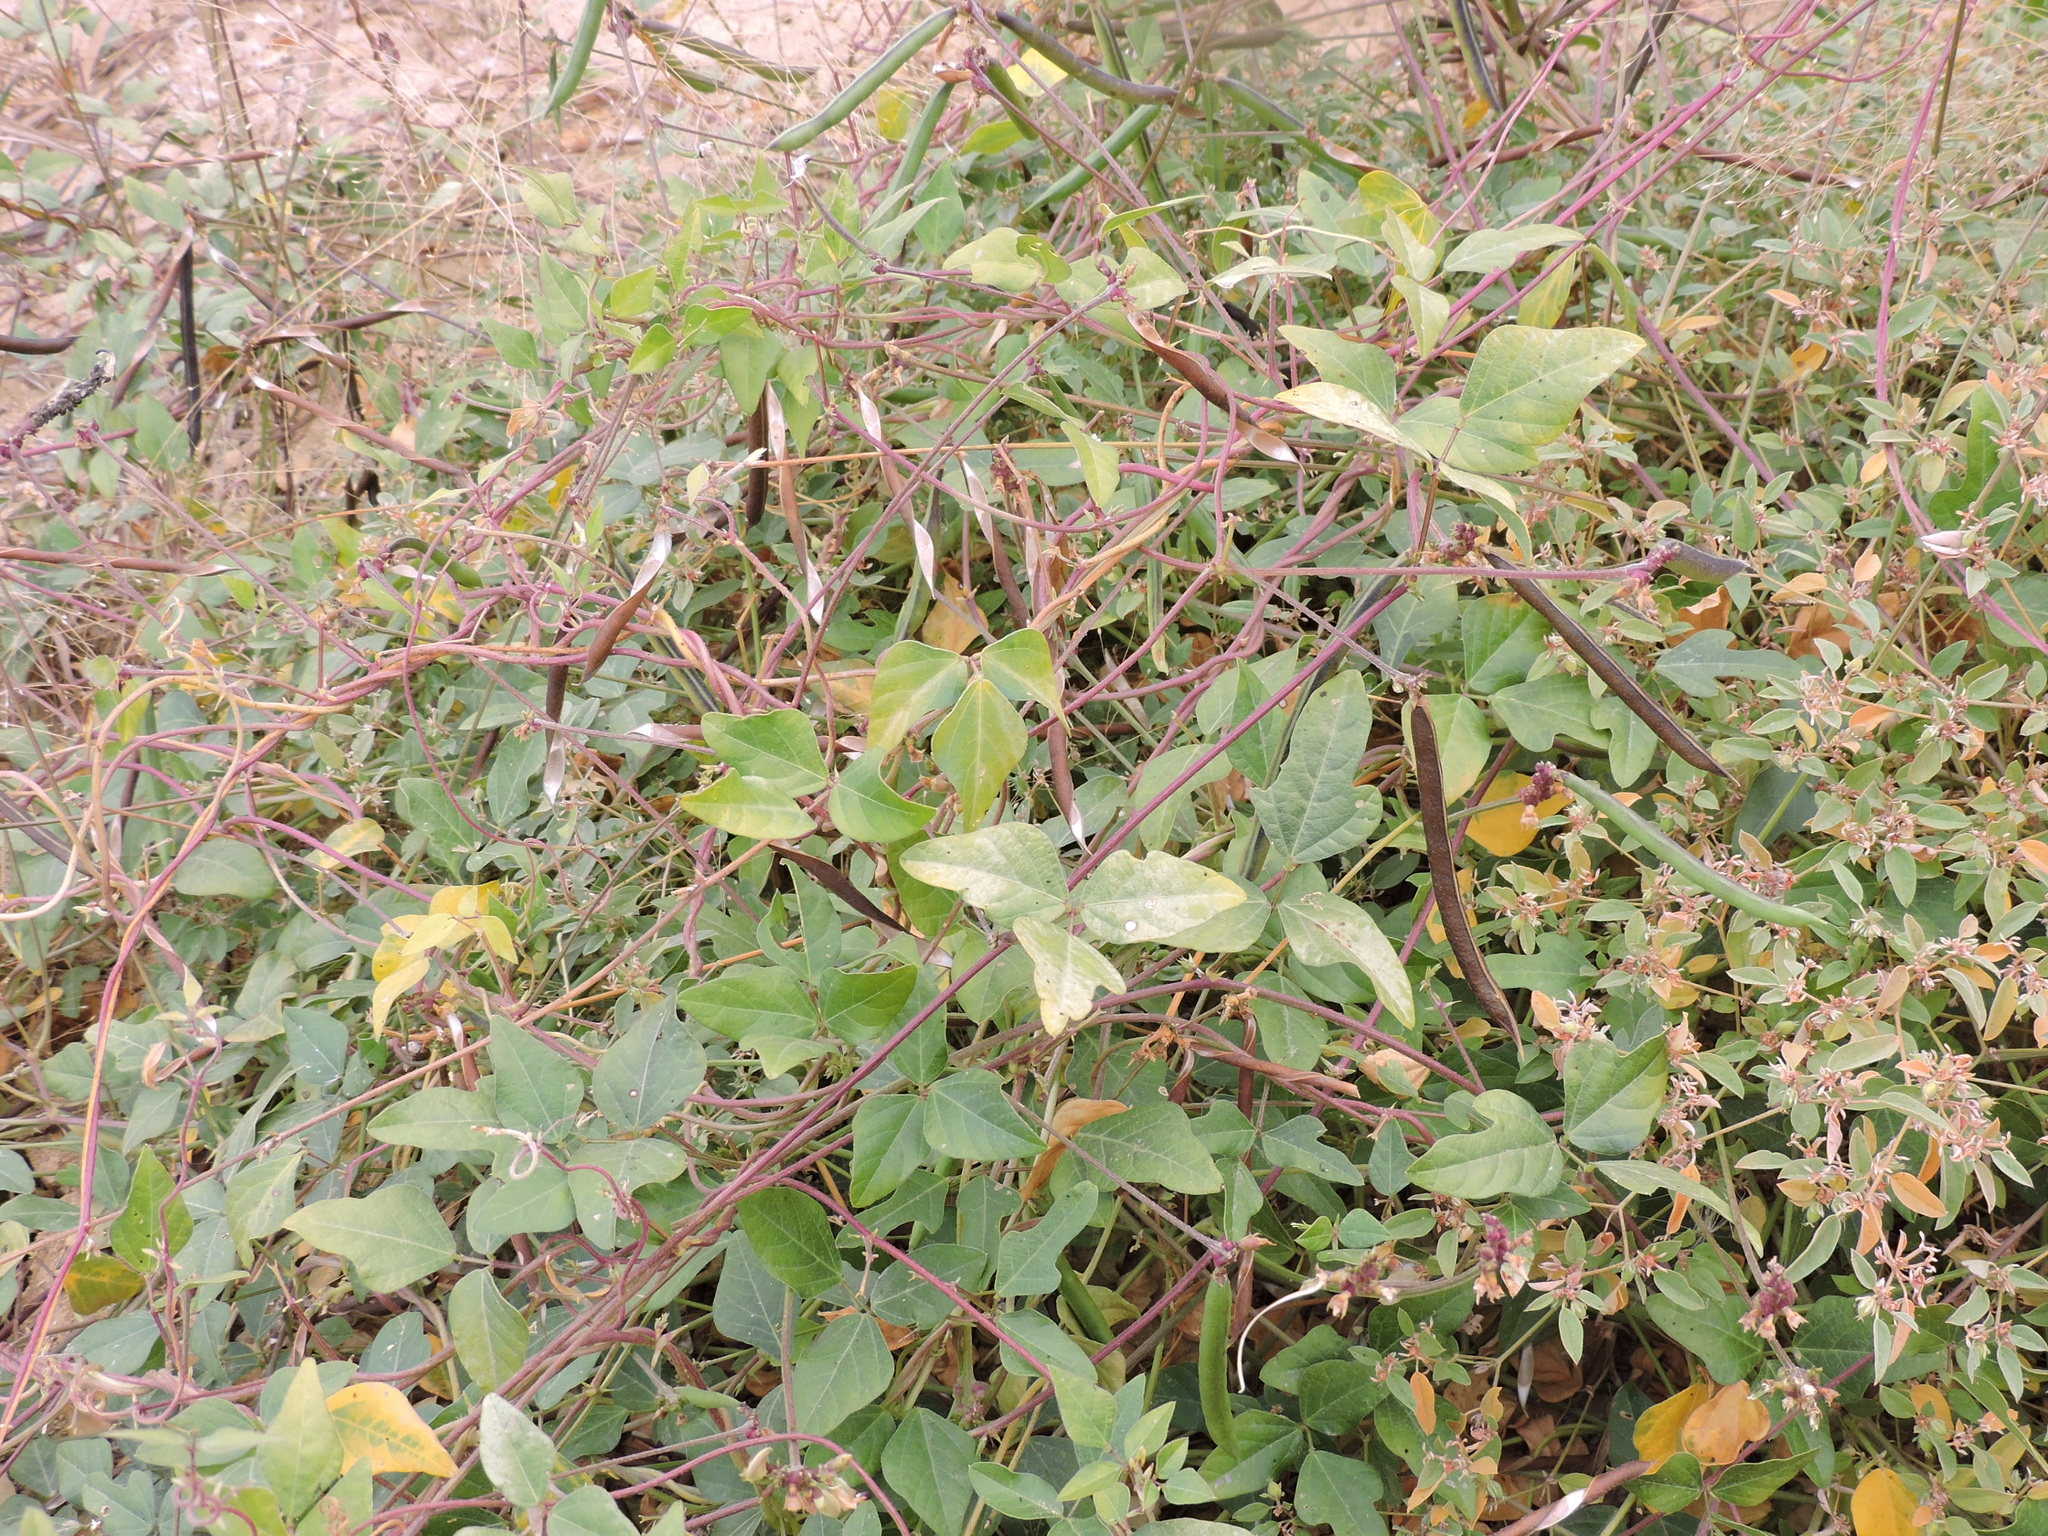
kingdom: Plantae
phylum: Tracheophyta
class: Magnoliopsida
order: Fabales
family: Fabaceae
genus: Strophostyles
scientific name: Strophostyles helvola
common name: Trailing wild bean
